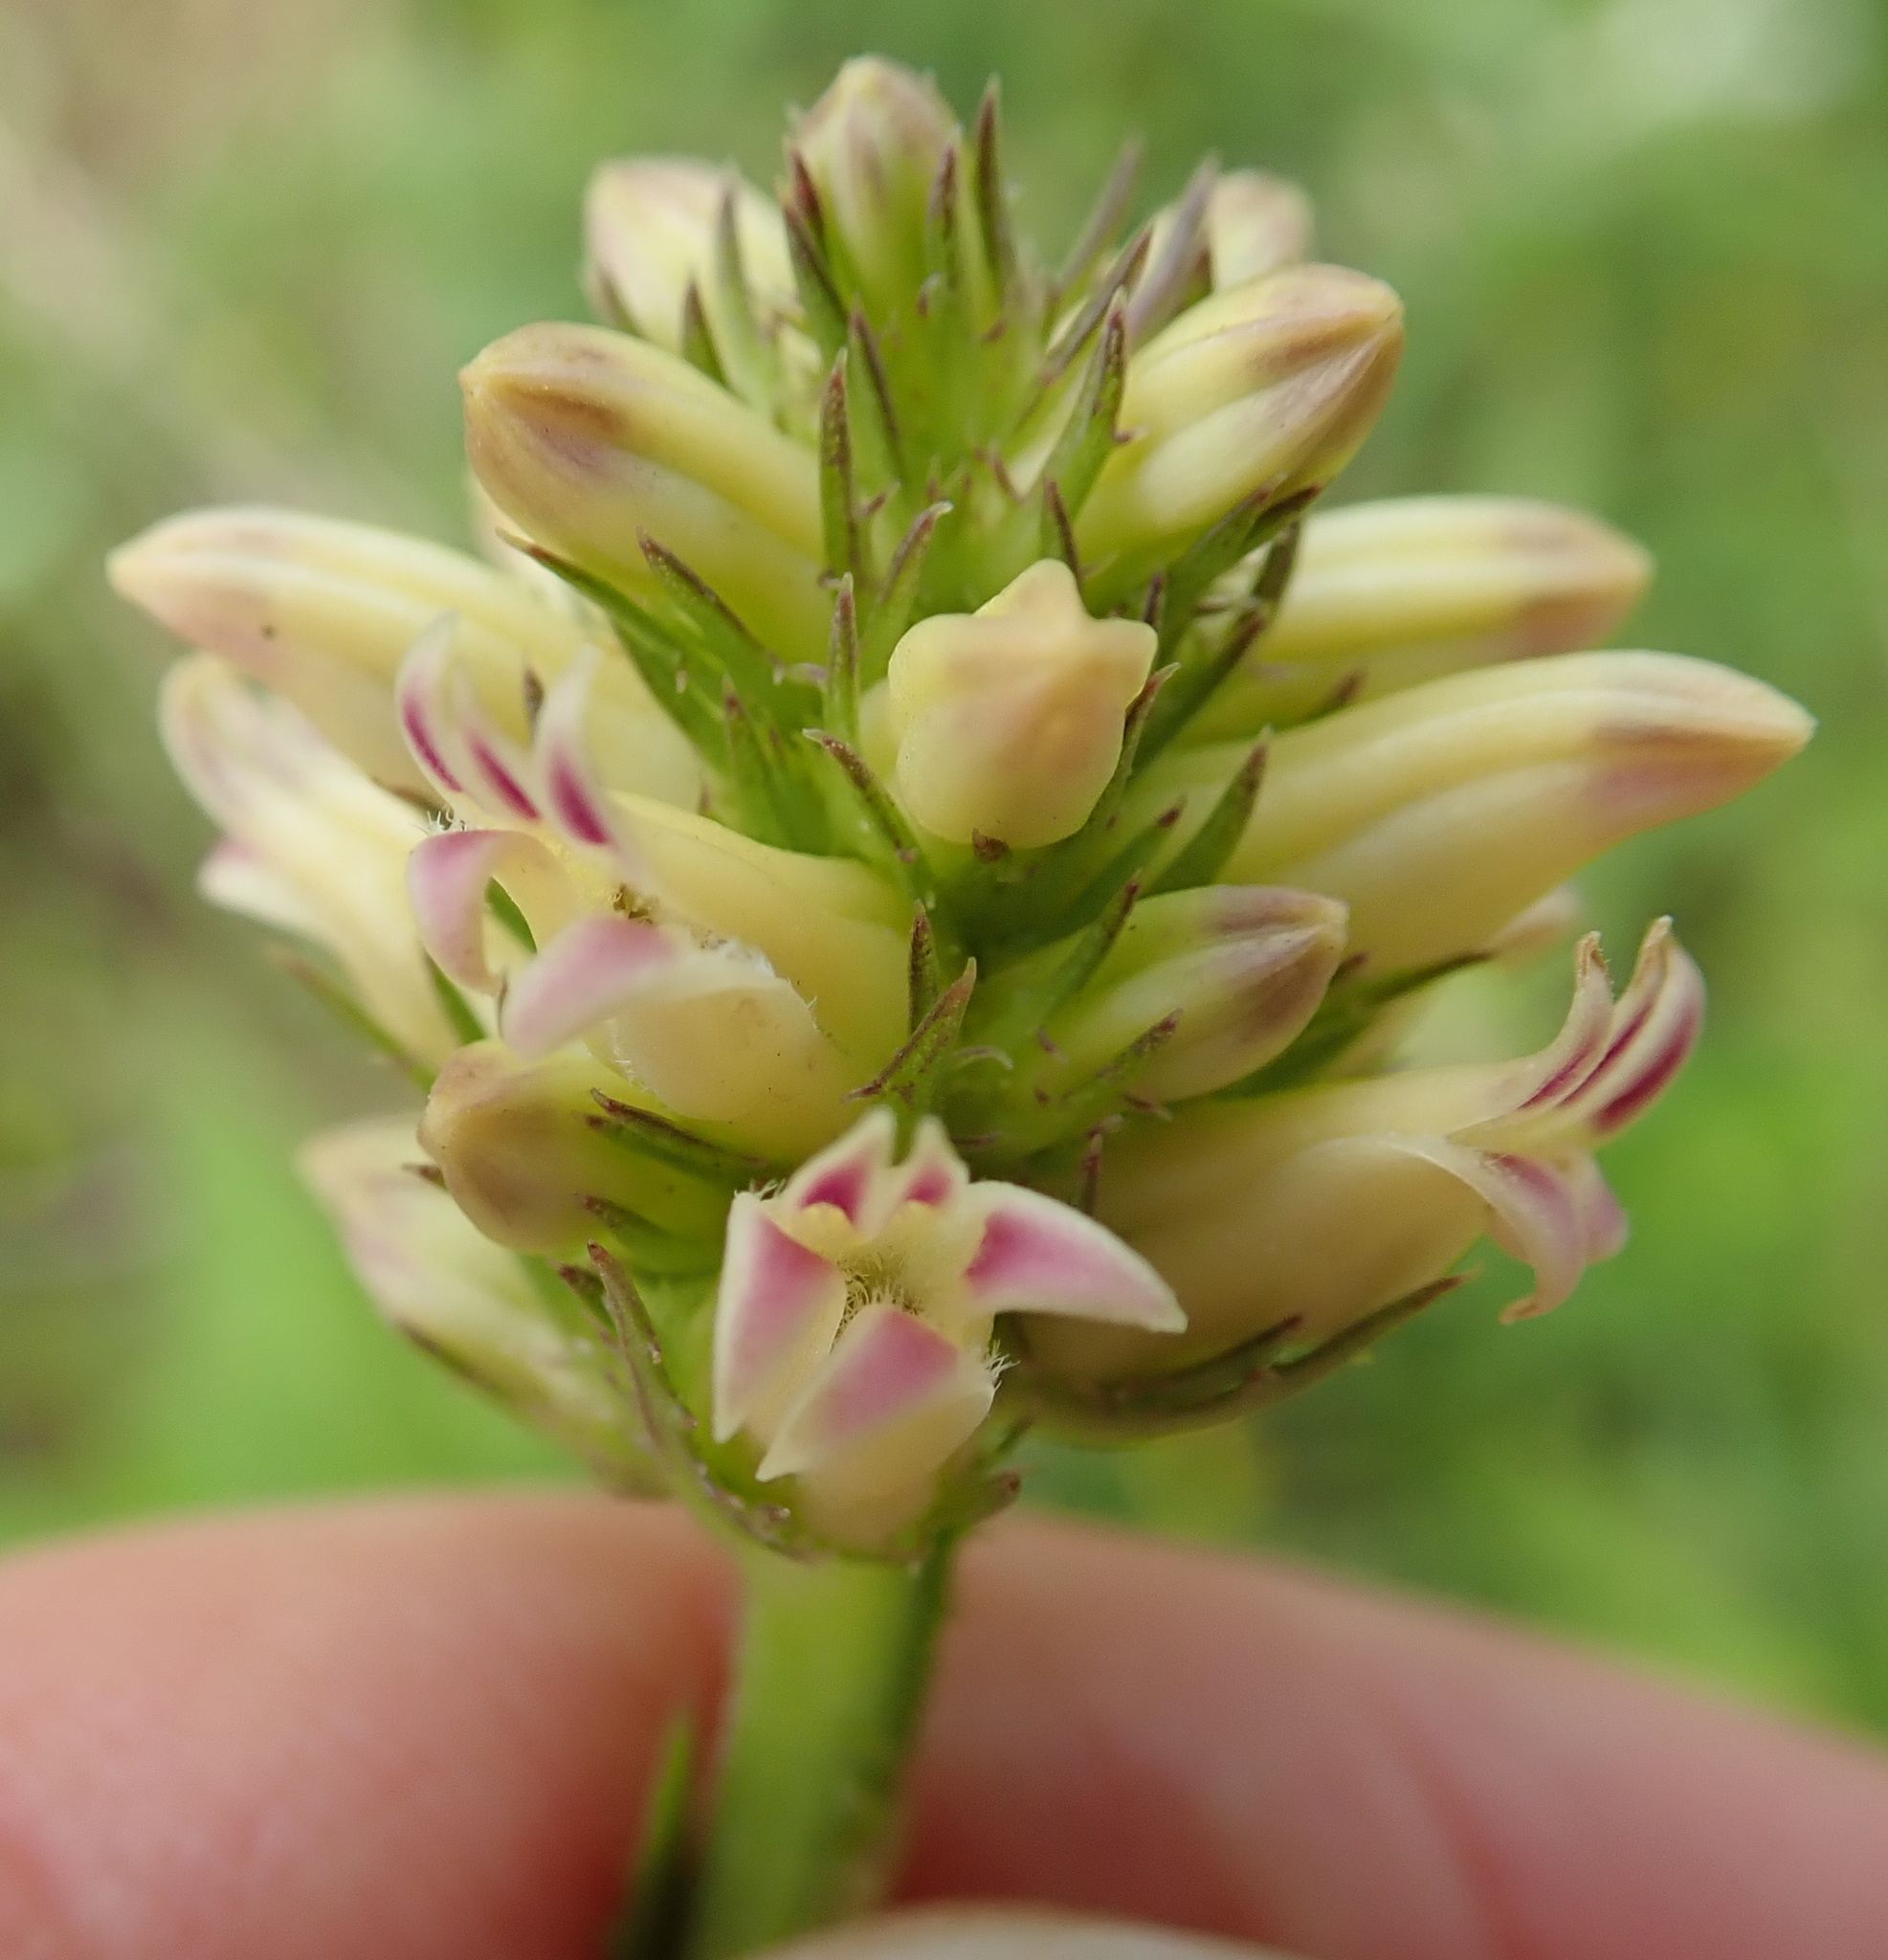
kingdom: Plantae
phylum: Tracheophyta
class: Magnoliopsida
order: Asterales
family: Campanulaceae
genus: Cyphia
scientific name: Cyphia elata
